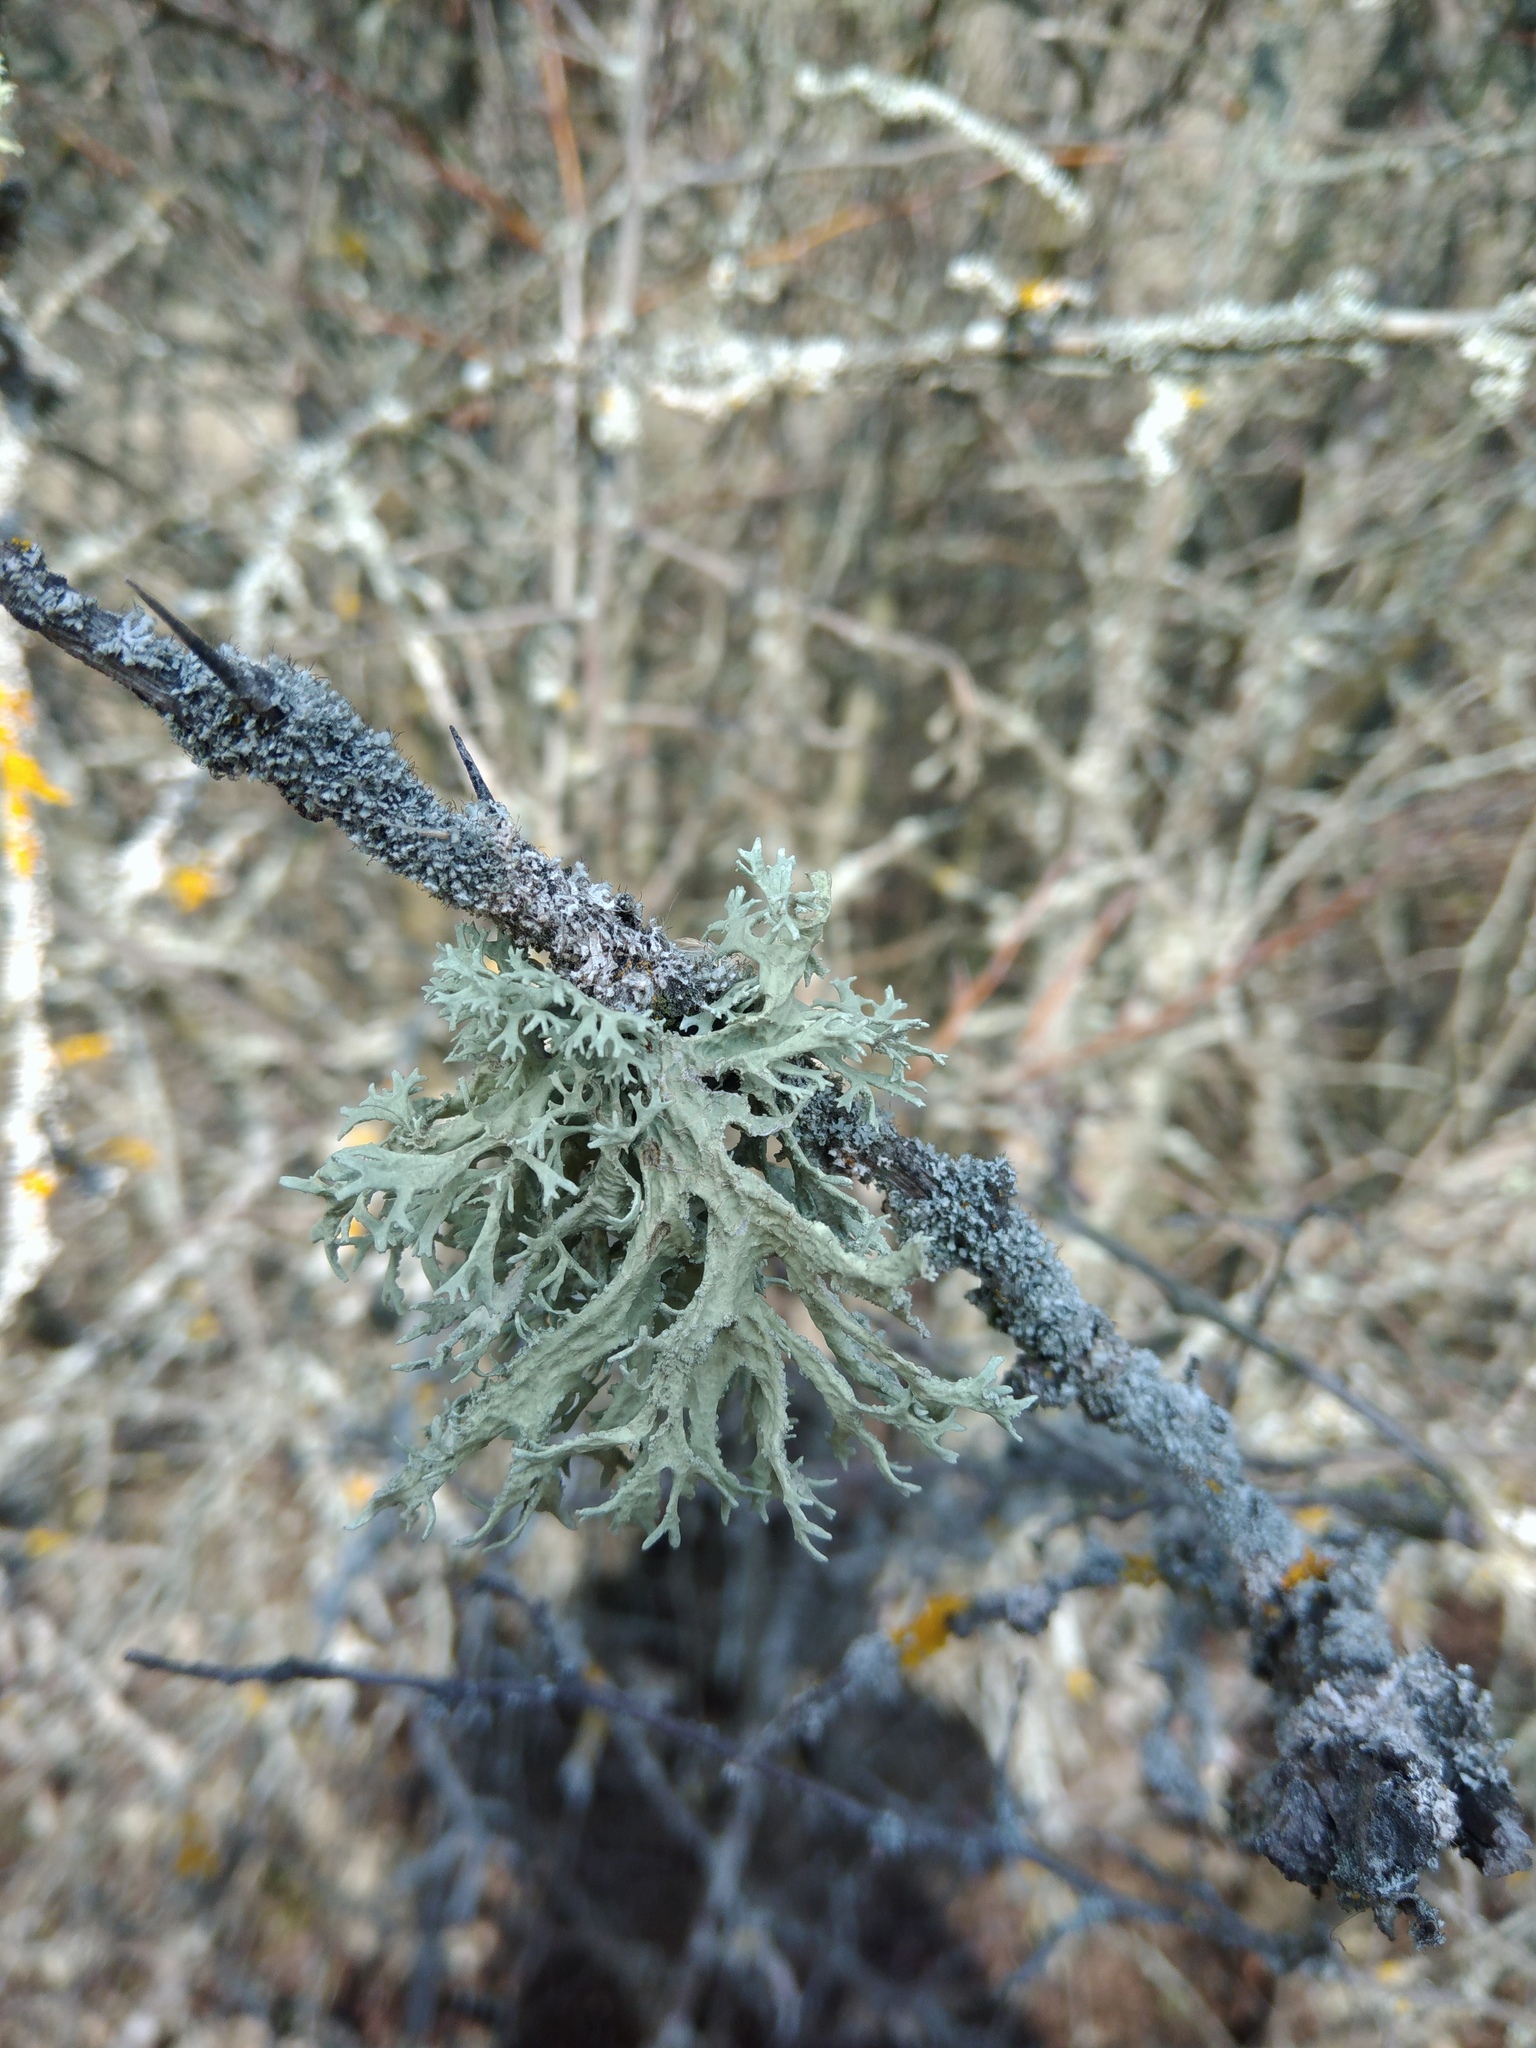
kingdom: Fungi
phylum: Ascomycota
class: Lecanoromycetes
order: Lecanorales
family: Parmeliaceae
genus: Evernia
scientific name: Evernia prunastri
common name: Oak moss
